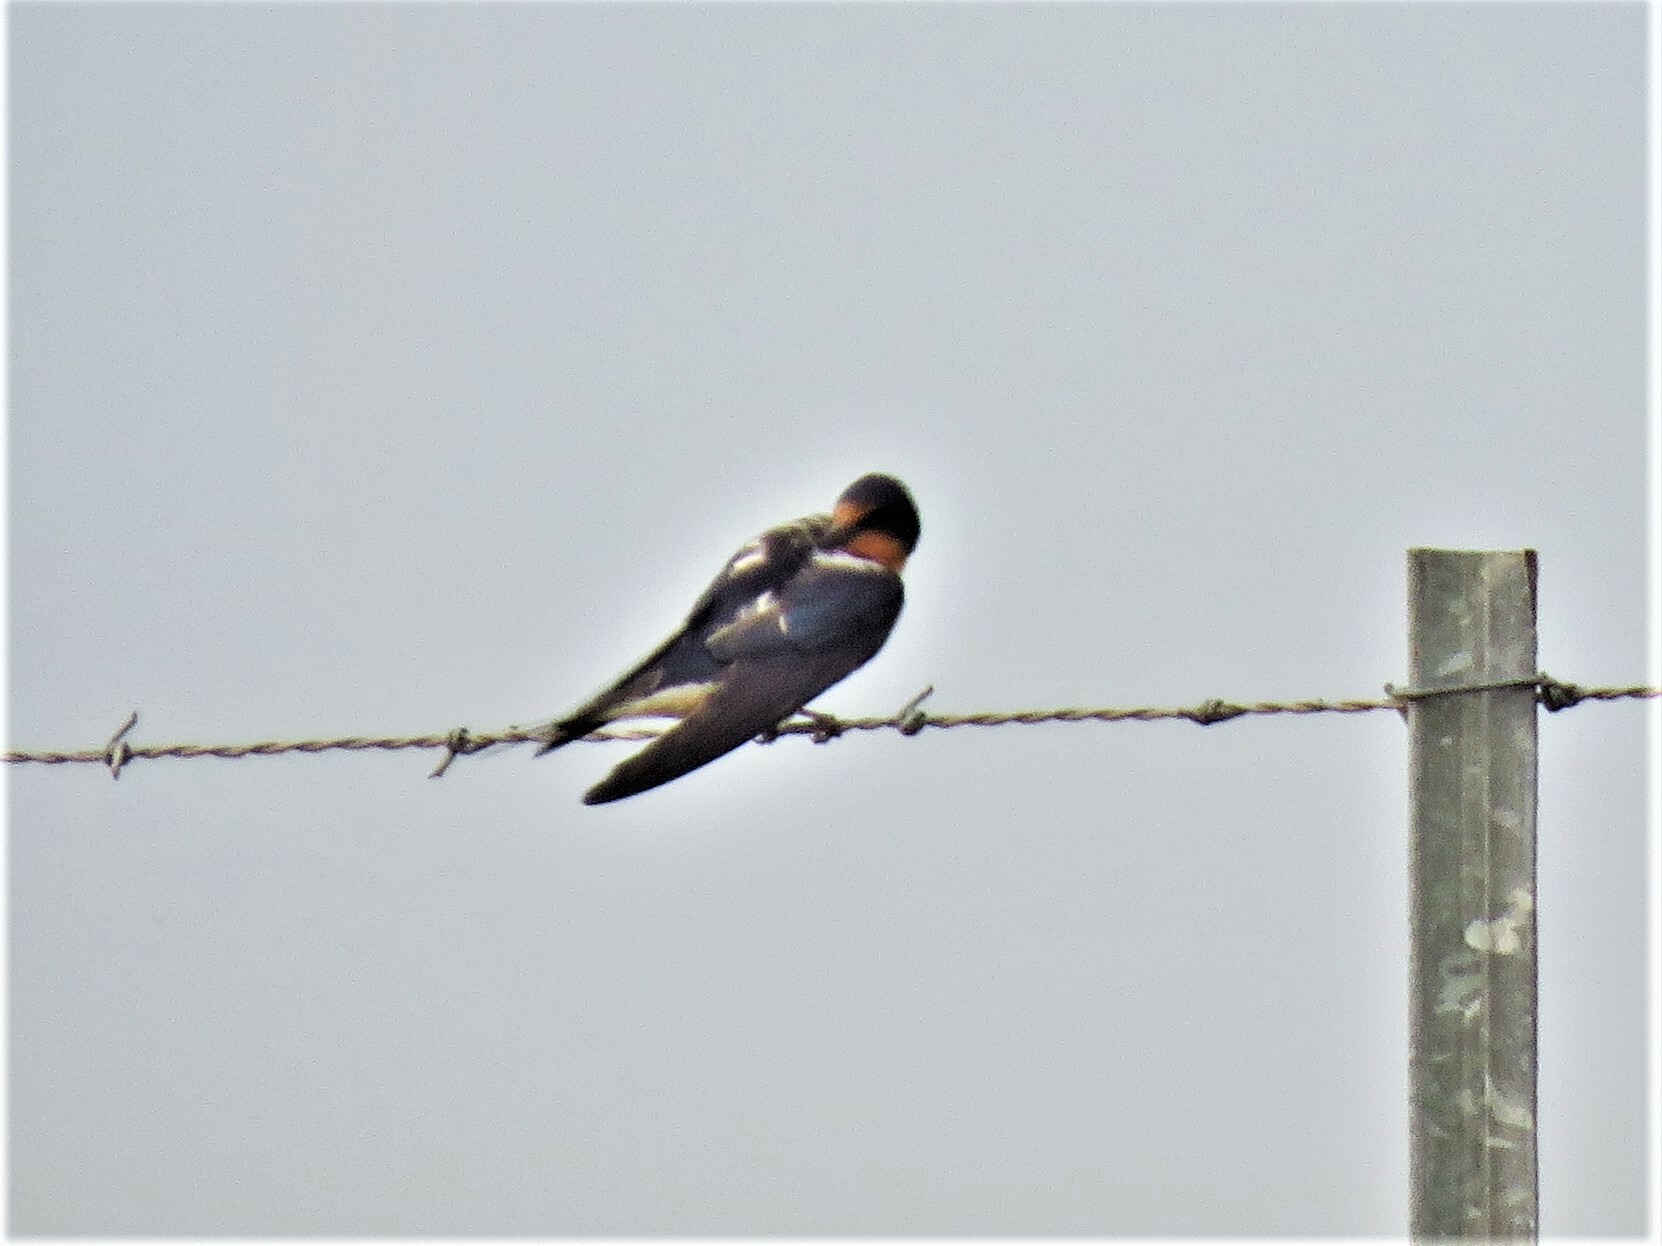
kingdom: Animalia
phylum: Chordata
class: Aves
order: Passeriformes
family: Hirundinidae
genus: Hirundo
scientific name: Hirundo rustica
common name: Barn swallow
